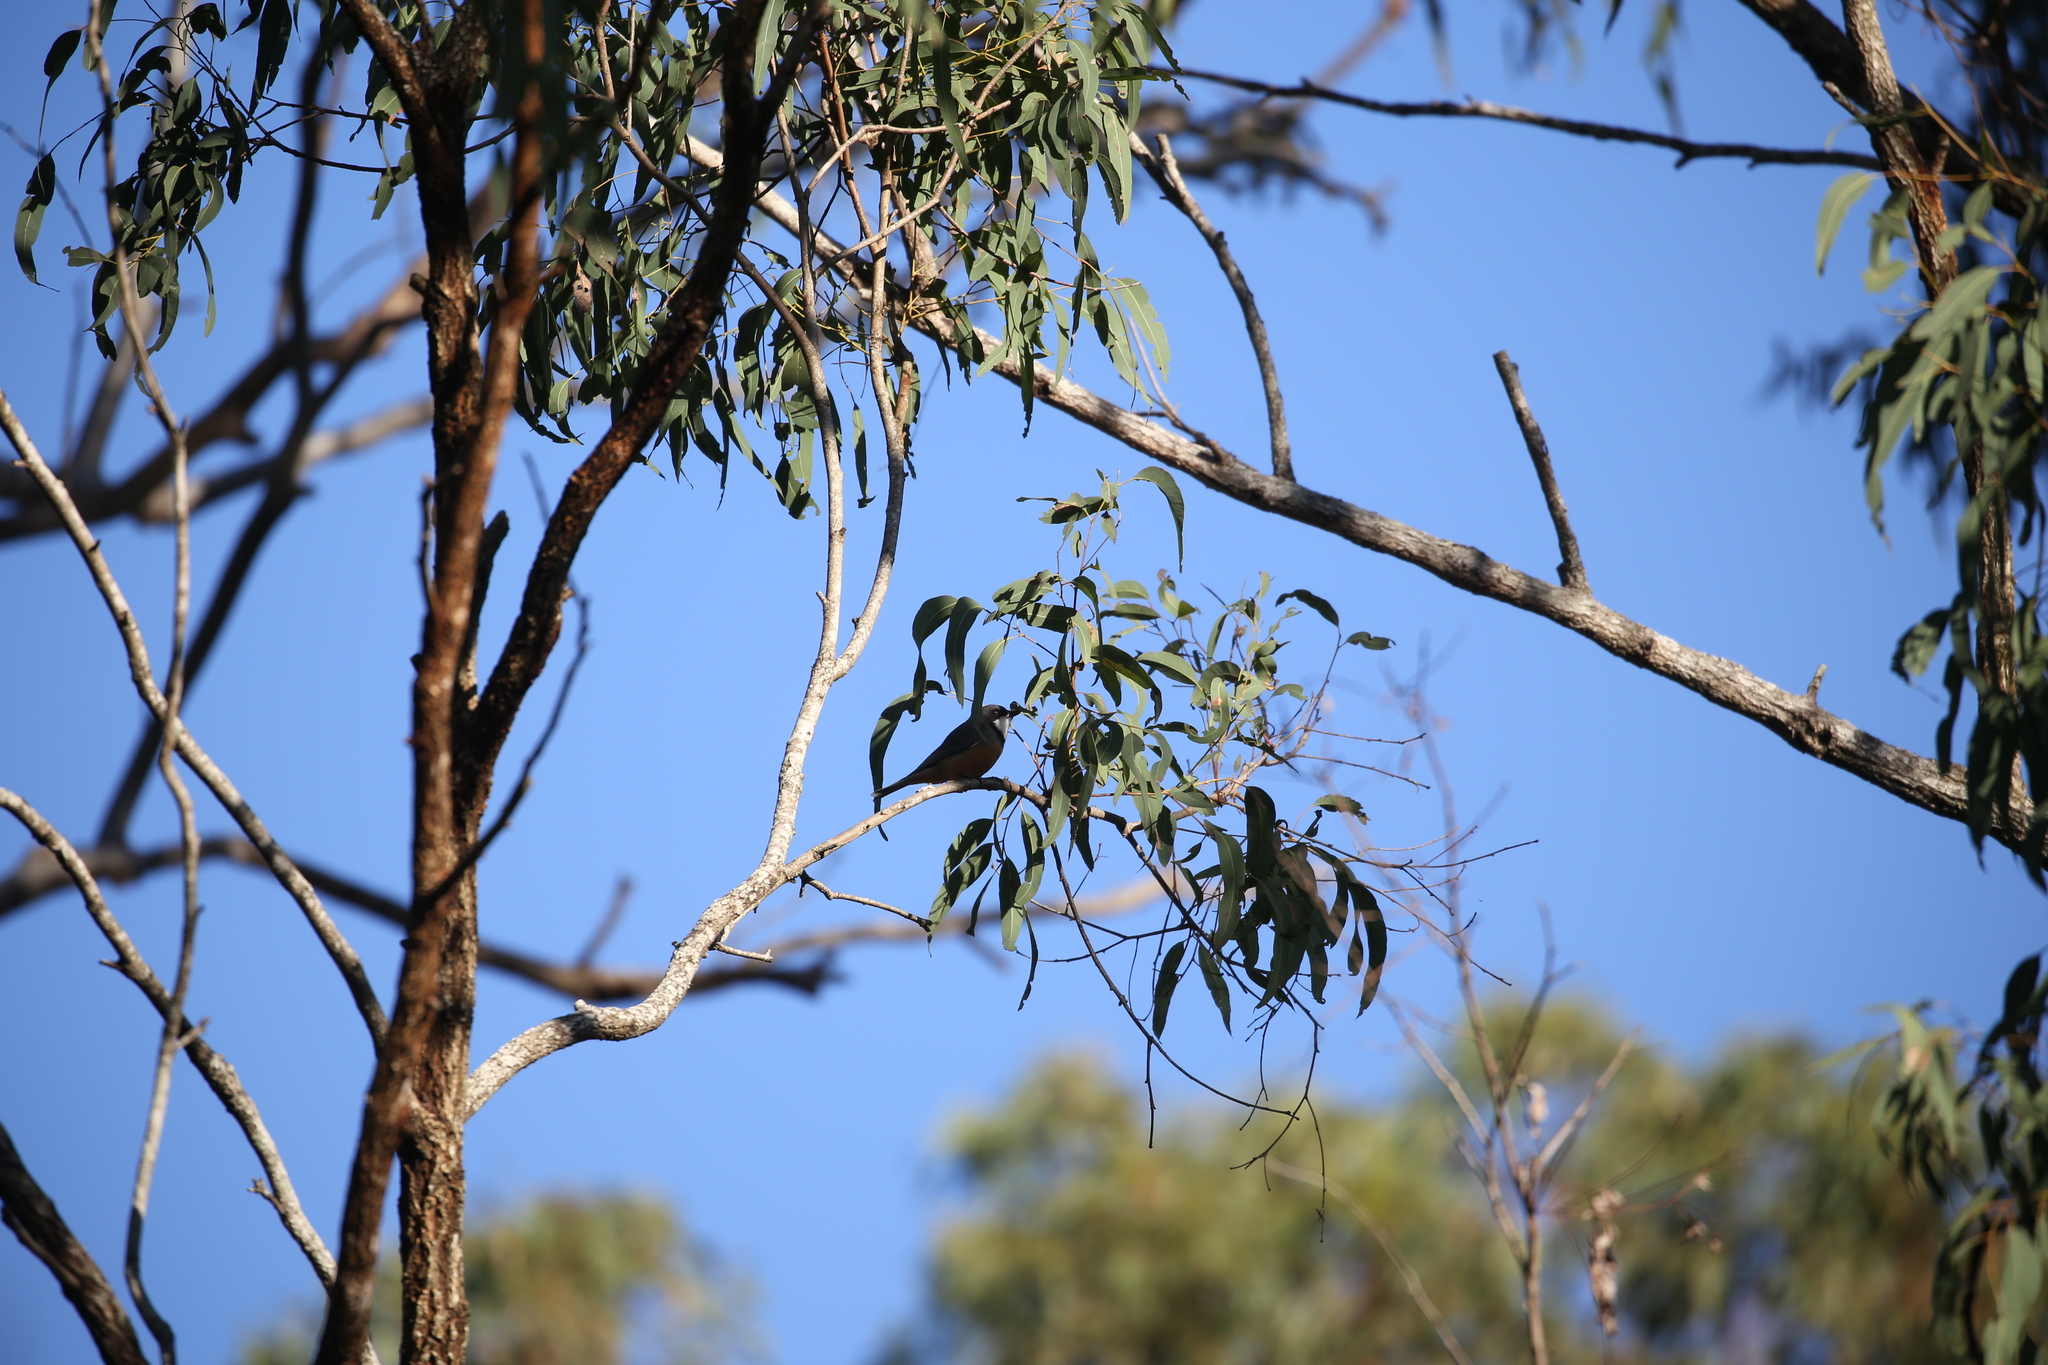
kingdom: Animalia
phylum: Chordata
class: Aves
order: Passeriformes
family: Pachycephalidae
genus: Pachycephala
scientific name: Pachycephala rufiventris
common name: Rufous whistler
